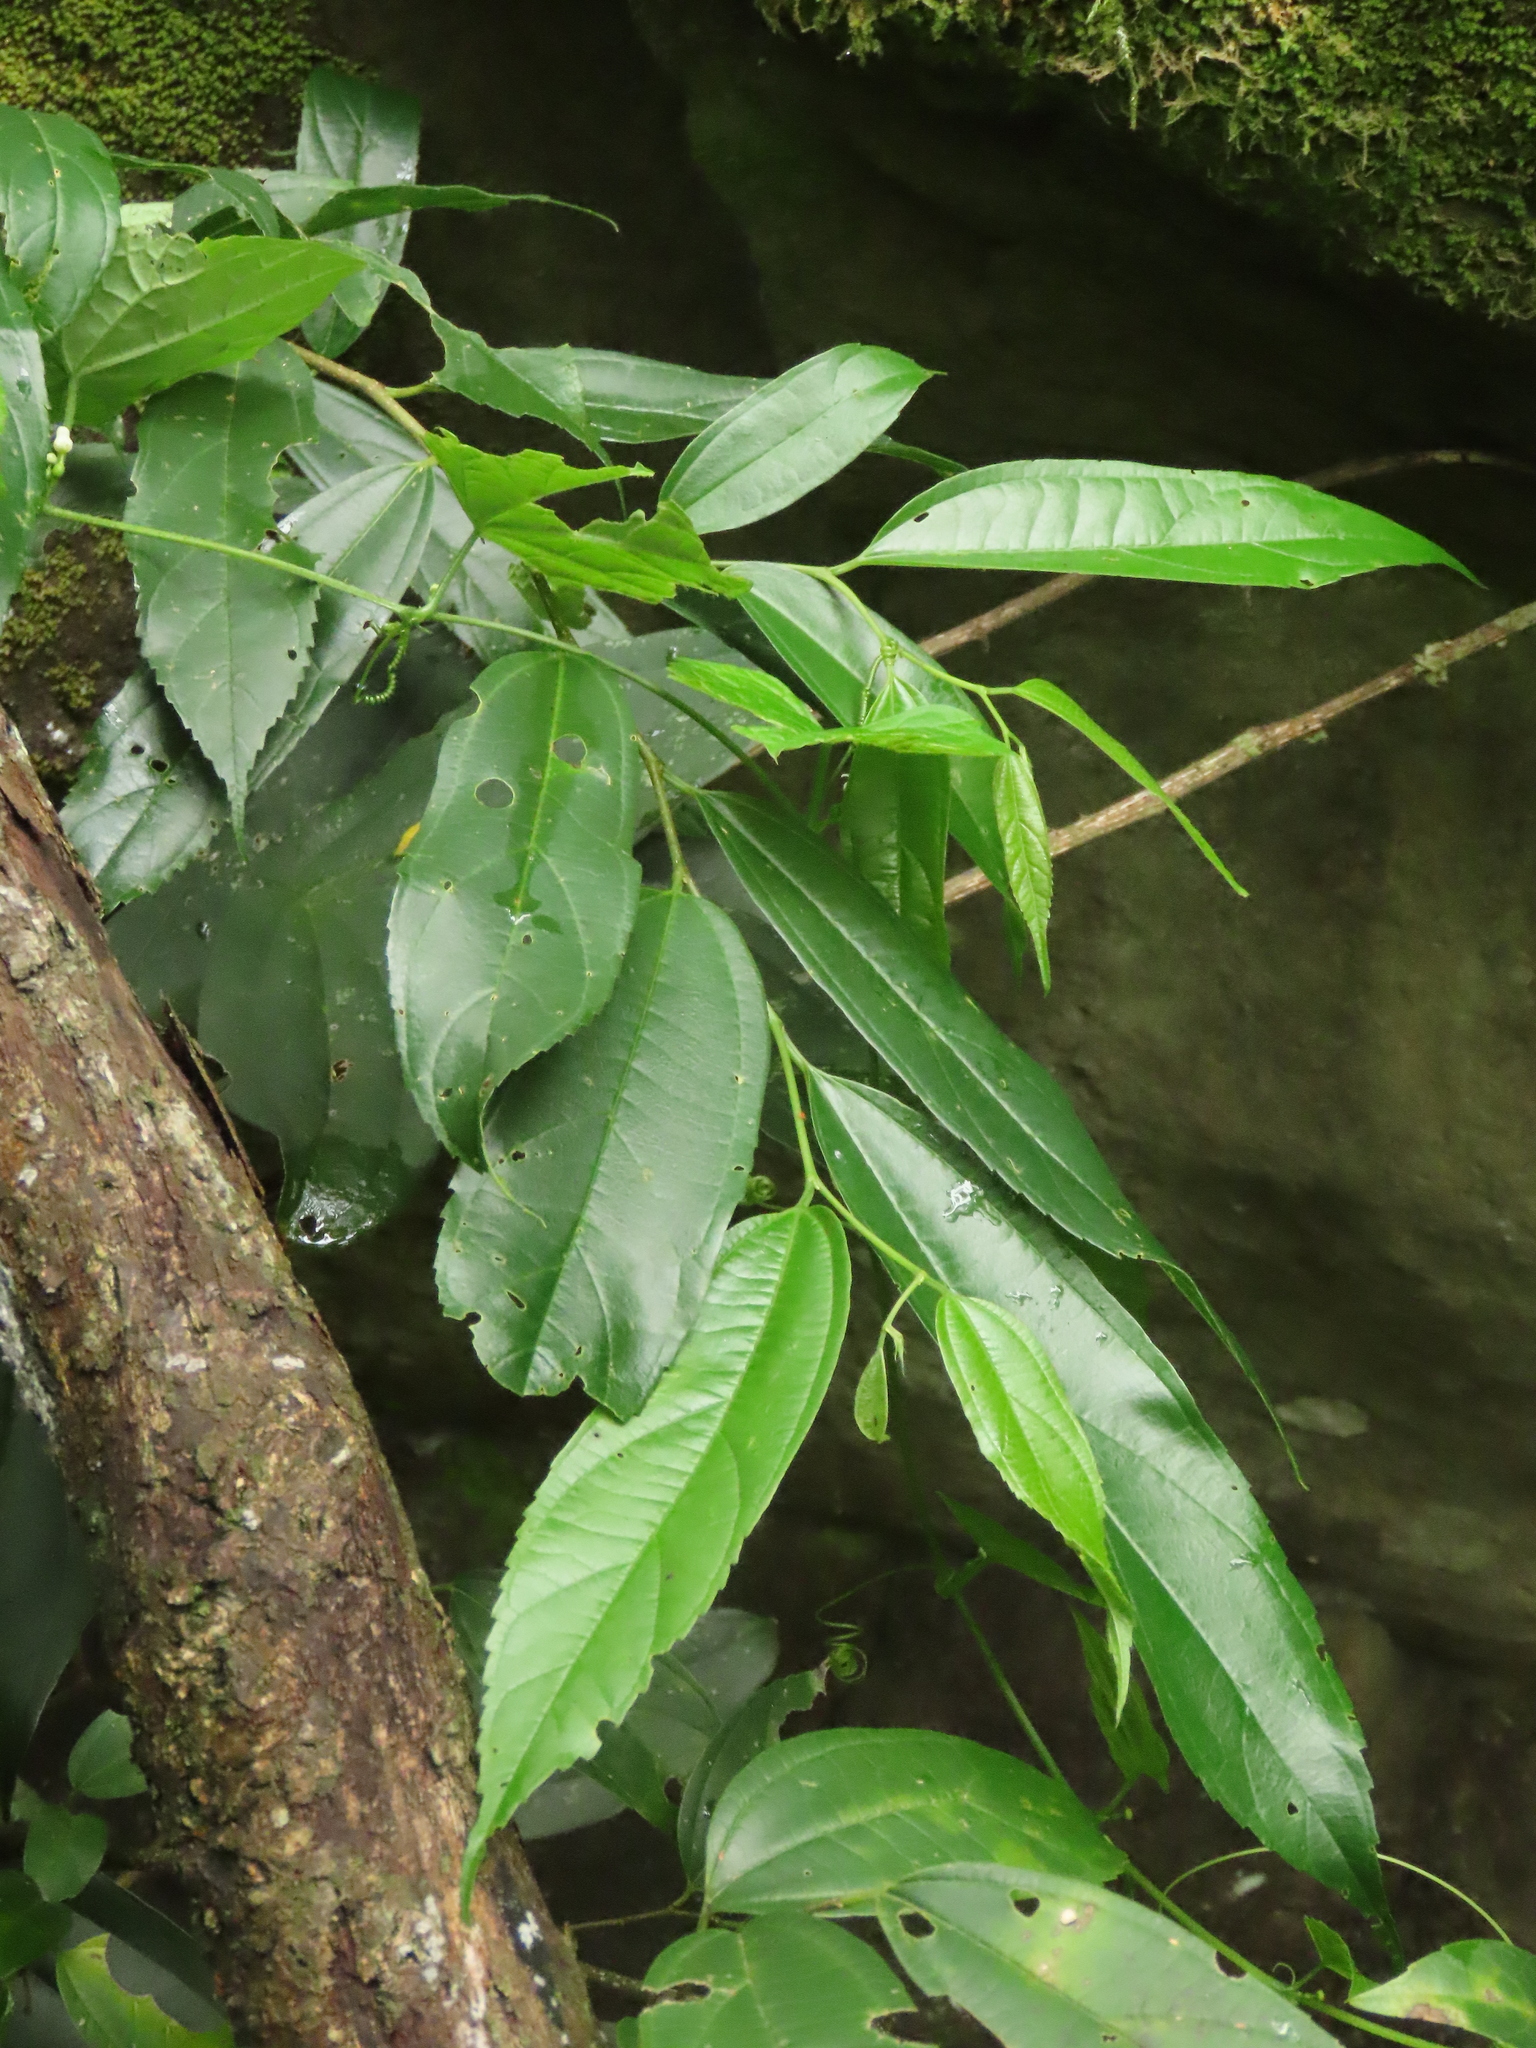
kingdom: Plantae
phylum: Tracheophyta
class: Magnoliopsida
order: Rosales
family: Cannabaceae
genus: Celtis
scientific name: Celtis tetrandra
